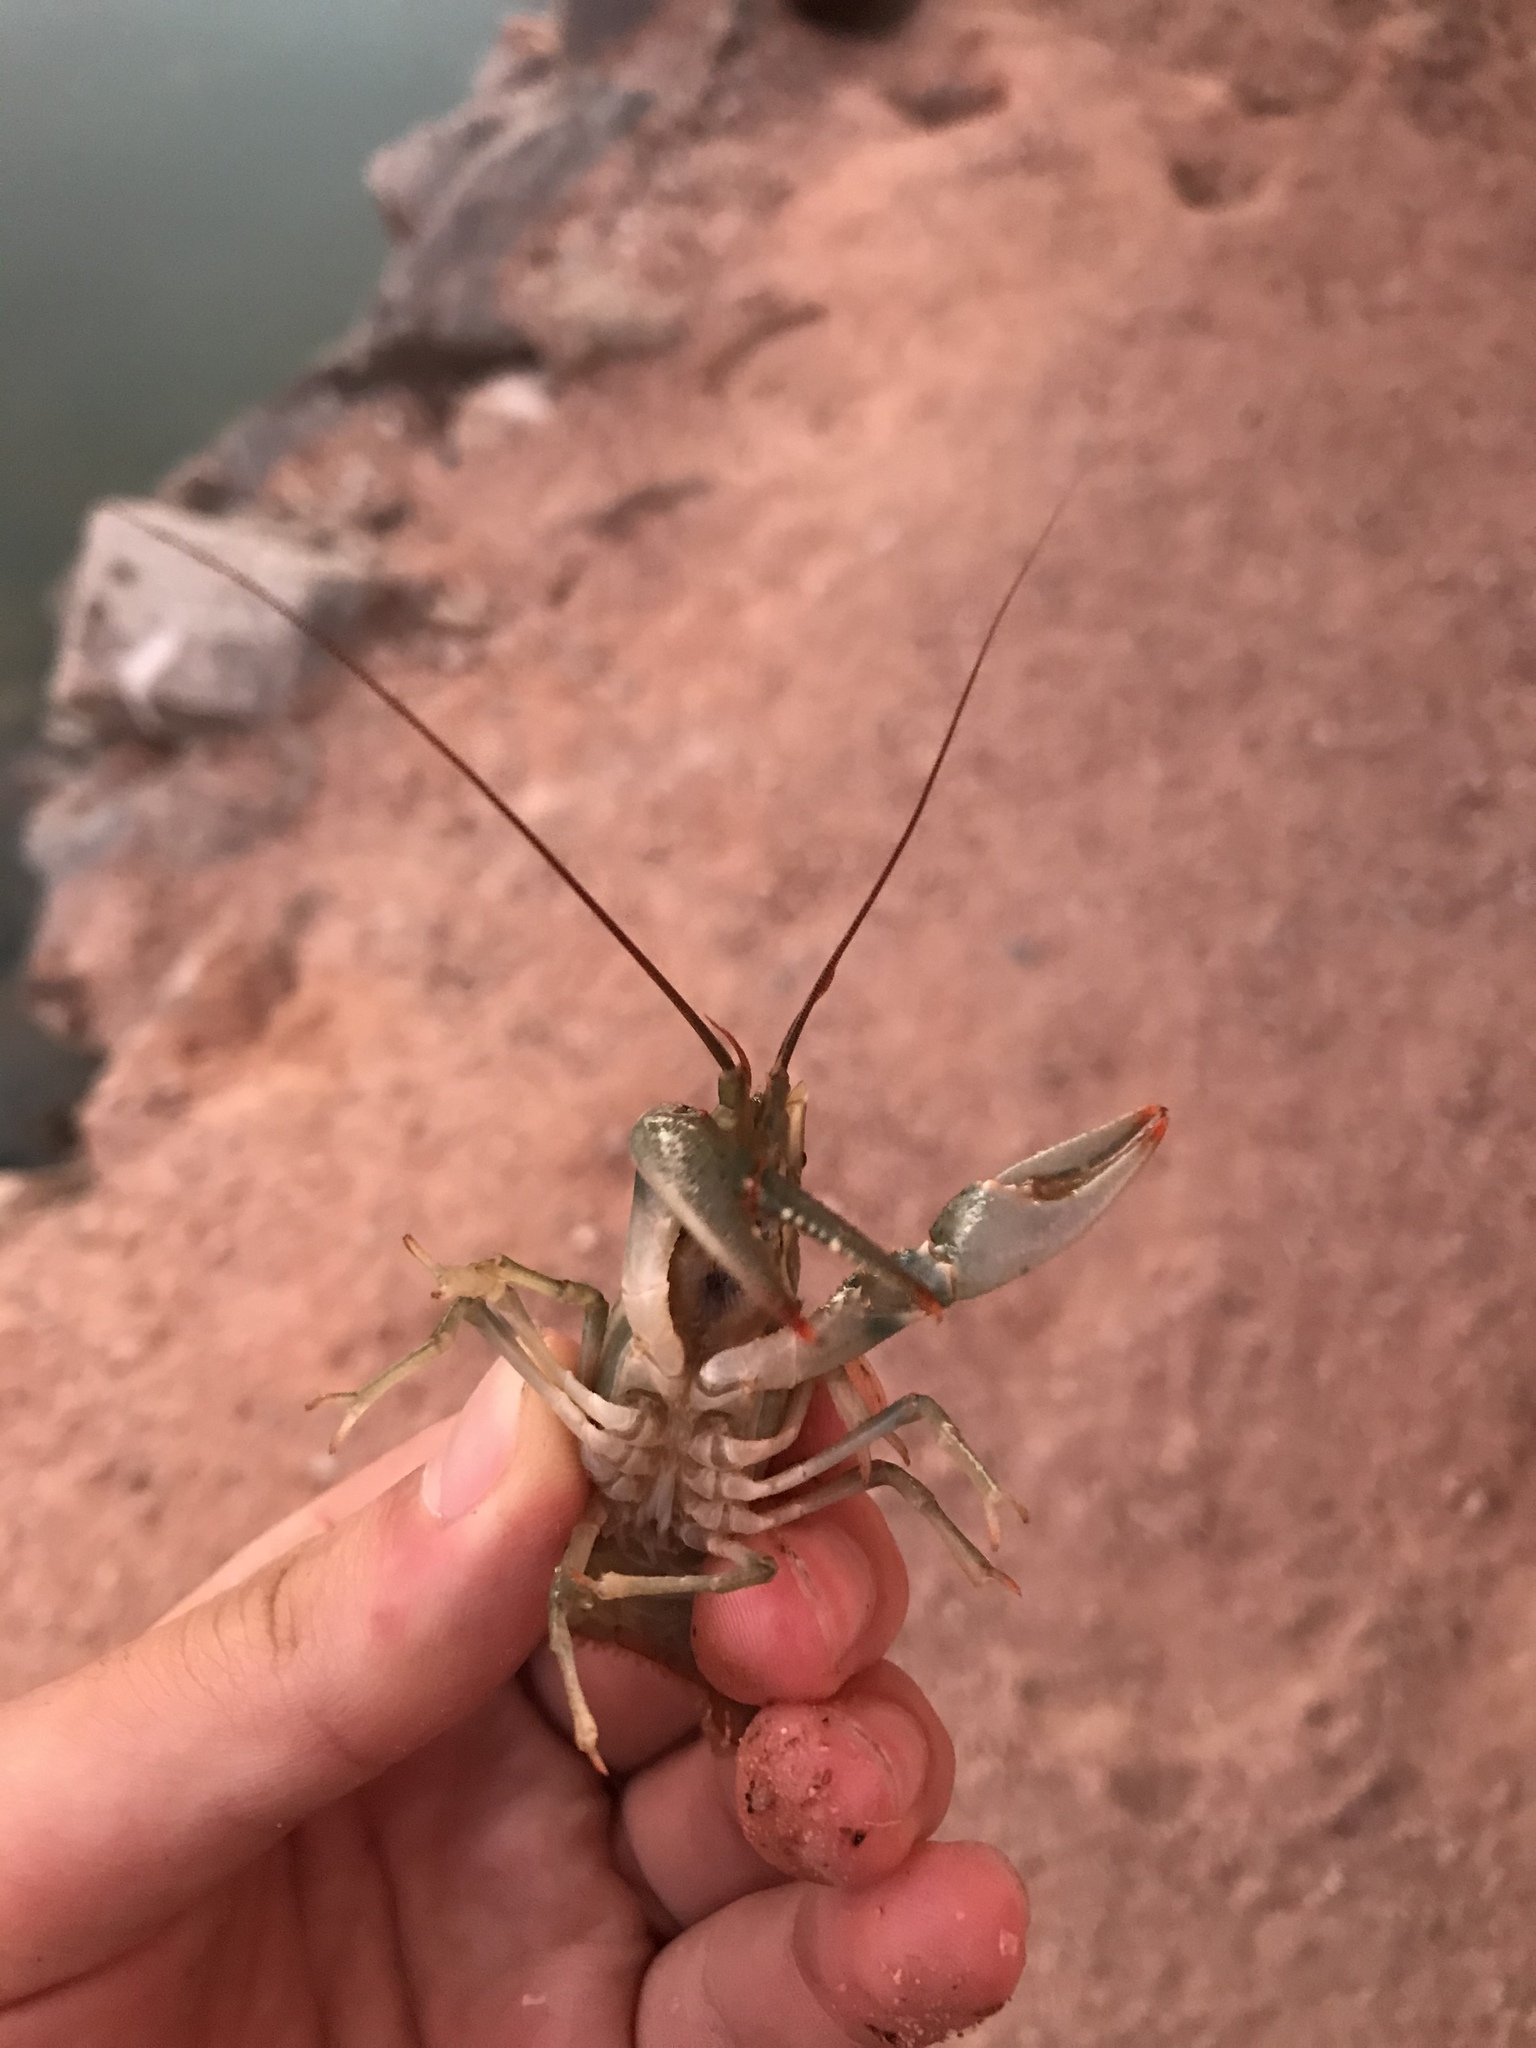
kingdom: Animalia
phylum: Arthropoda
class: Malacostraca
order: Decapoda
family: Cambaridae
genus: Faxonius
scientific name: Faxonius virilis
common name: Virile crayfish
